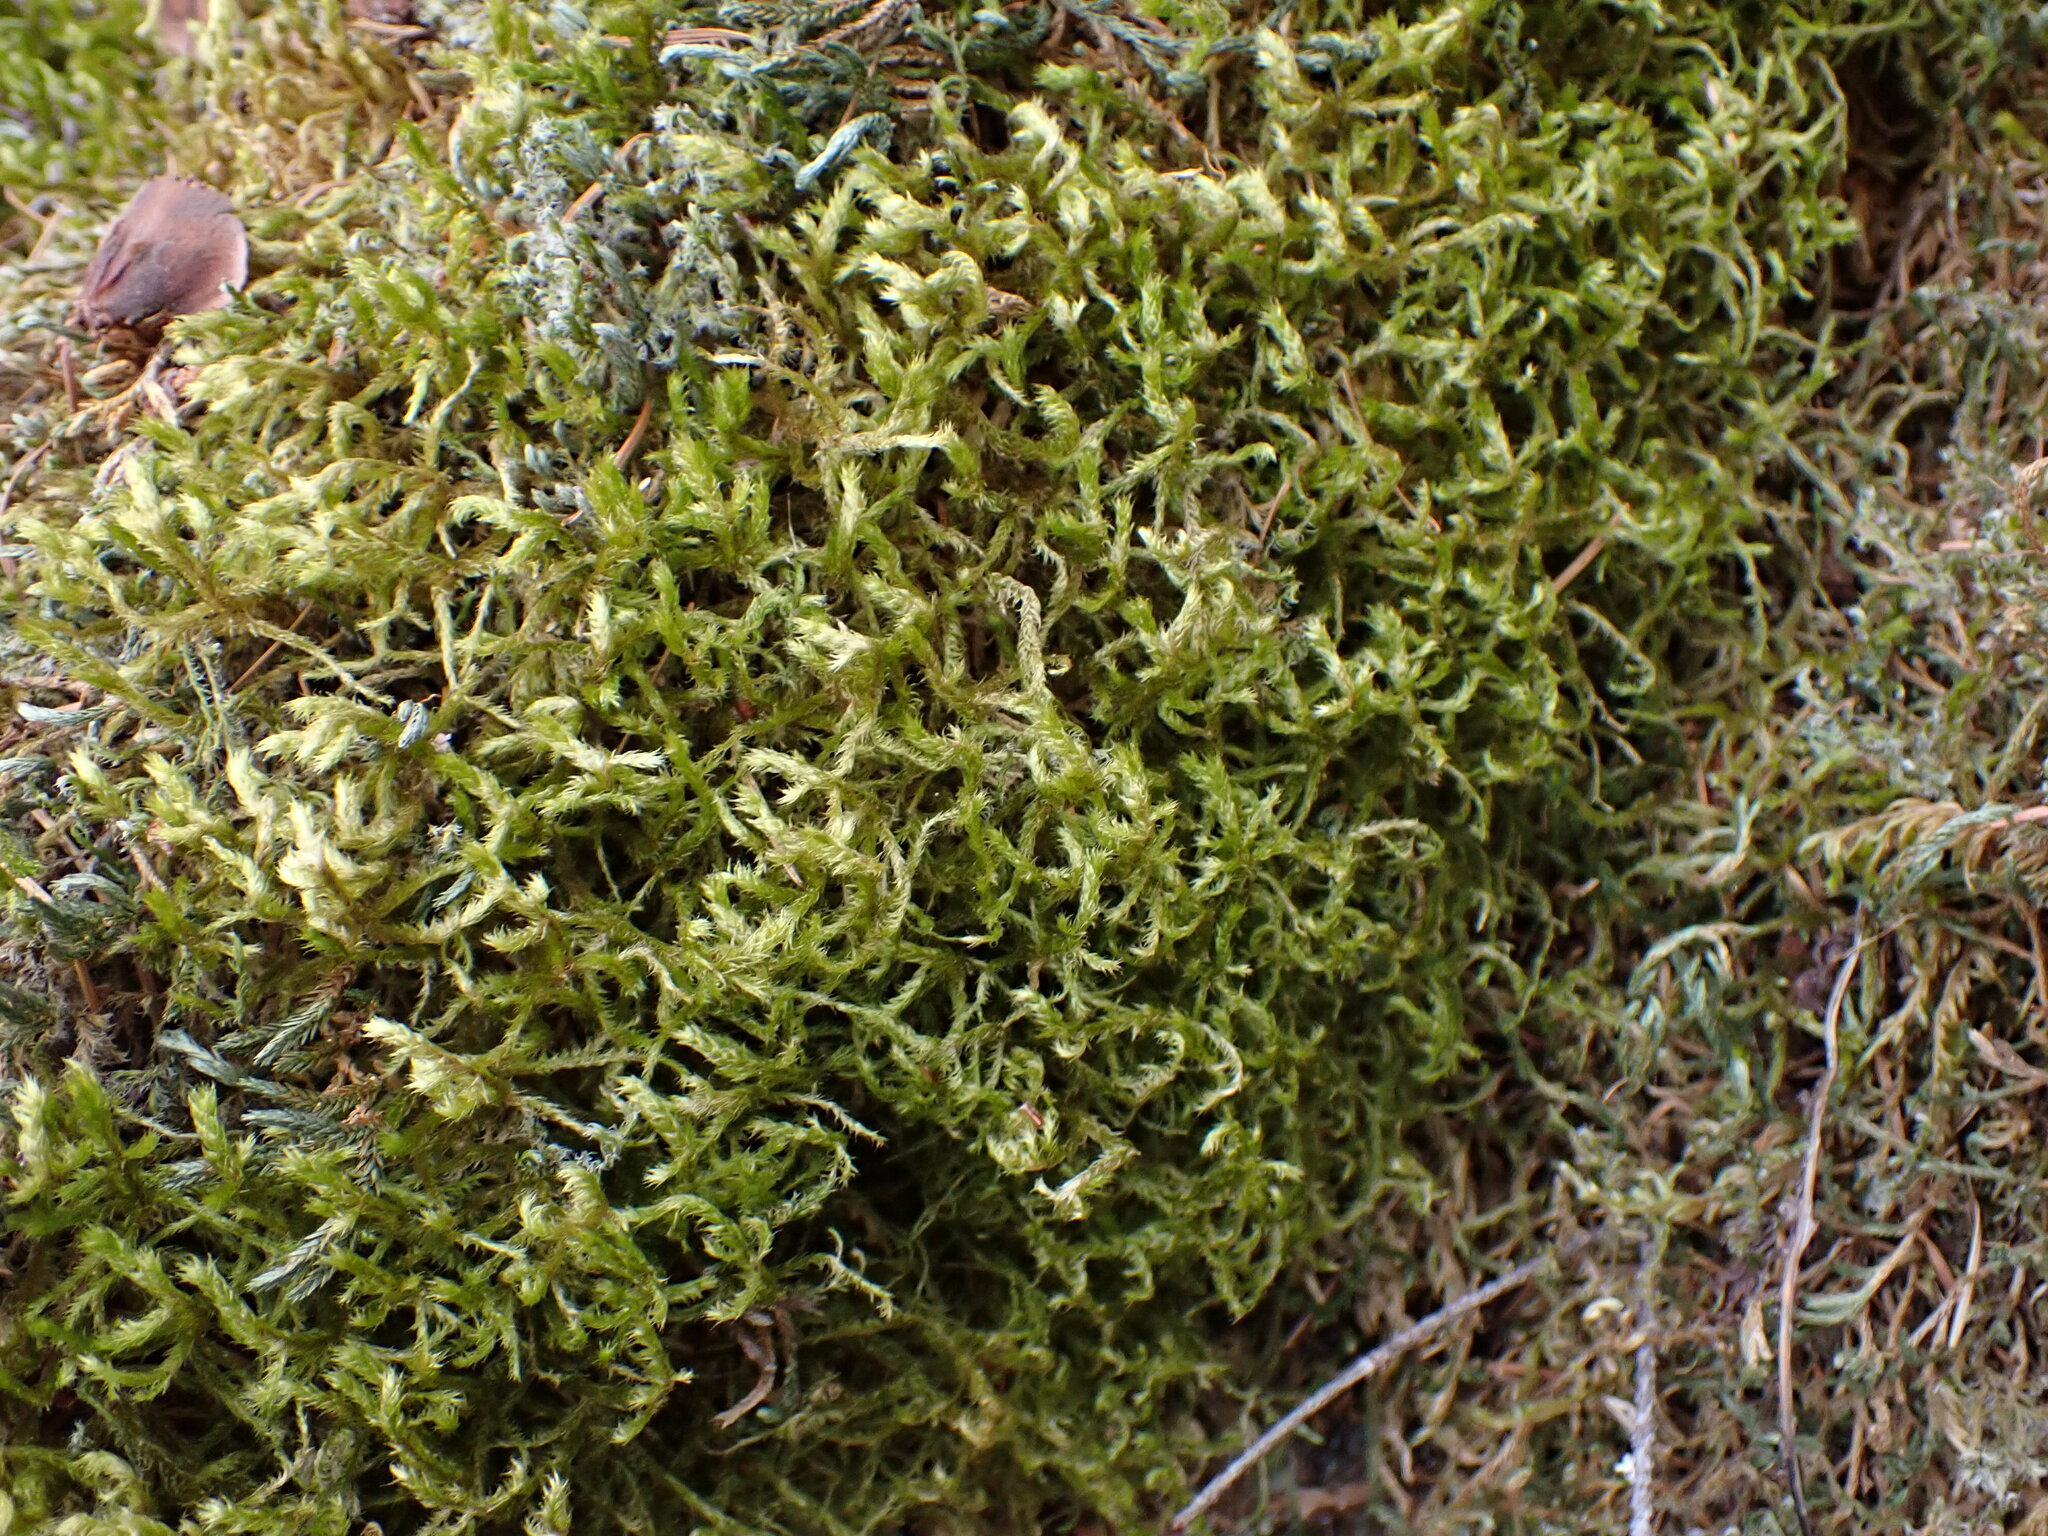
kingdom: Plantae
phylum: Bryophyta
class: Bryopsida
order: Hypnales
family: Antitrichiaceae
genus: Antitrichia
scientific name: Antitrichia curtipendula
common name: Pendulous wing-moss
